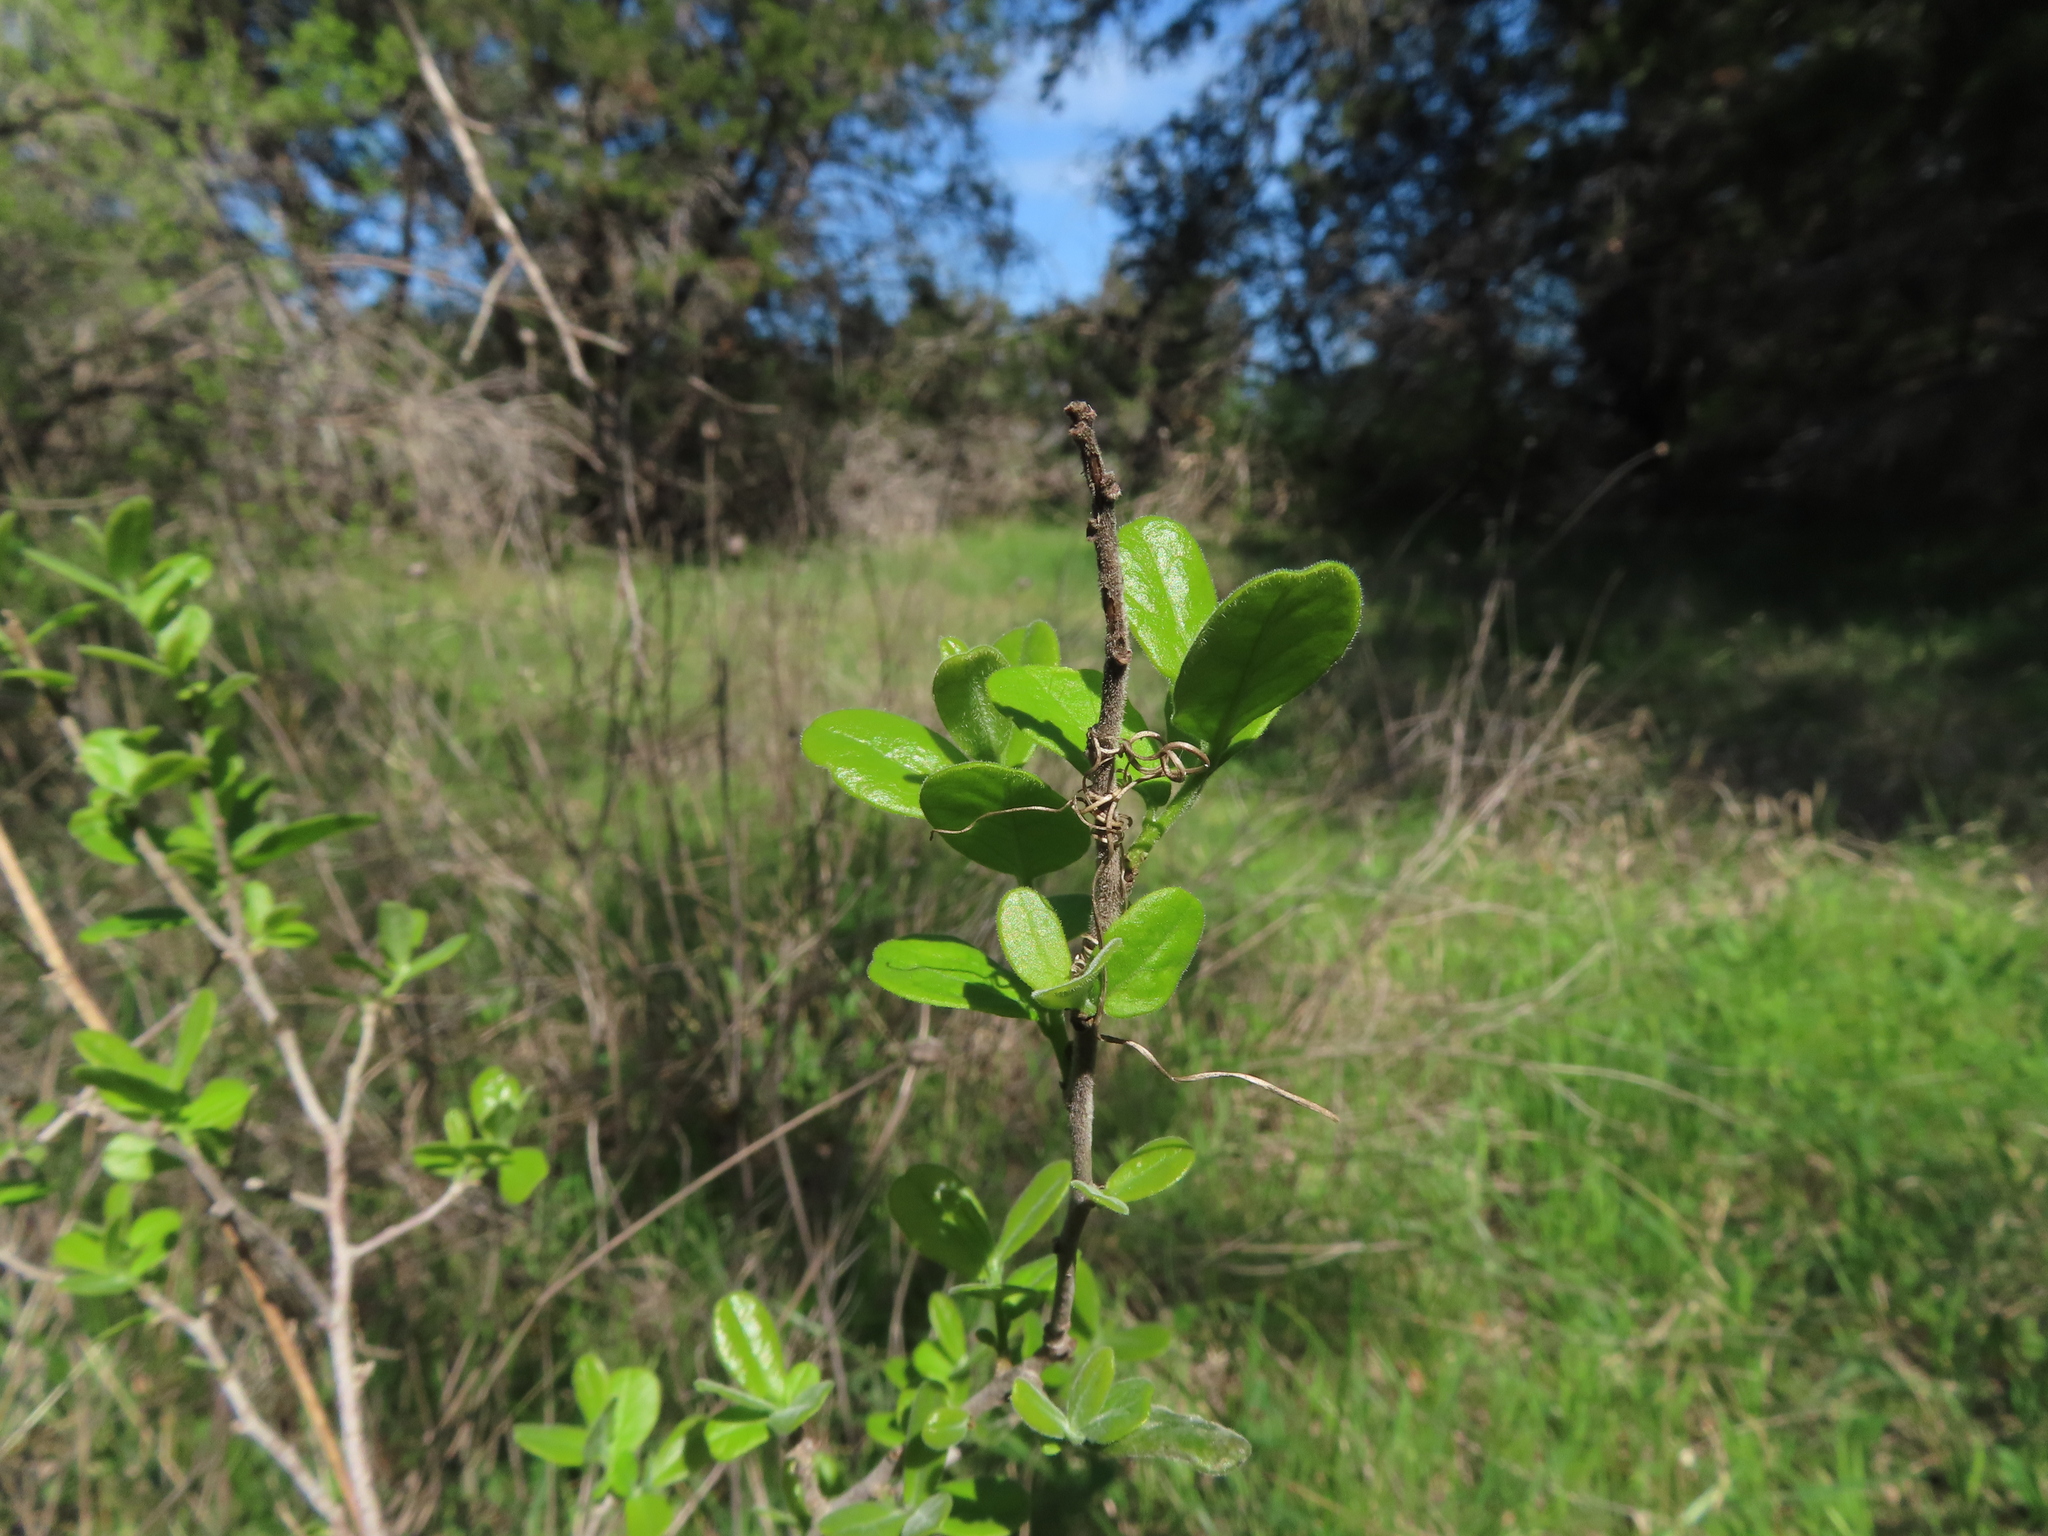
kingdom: Plantae
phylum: Tracheophyta
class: Magnoliopsida
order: Ericales
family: Ebenaceae
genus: Diospyros
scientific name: Diospyros texana
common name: Texas persimmon
